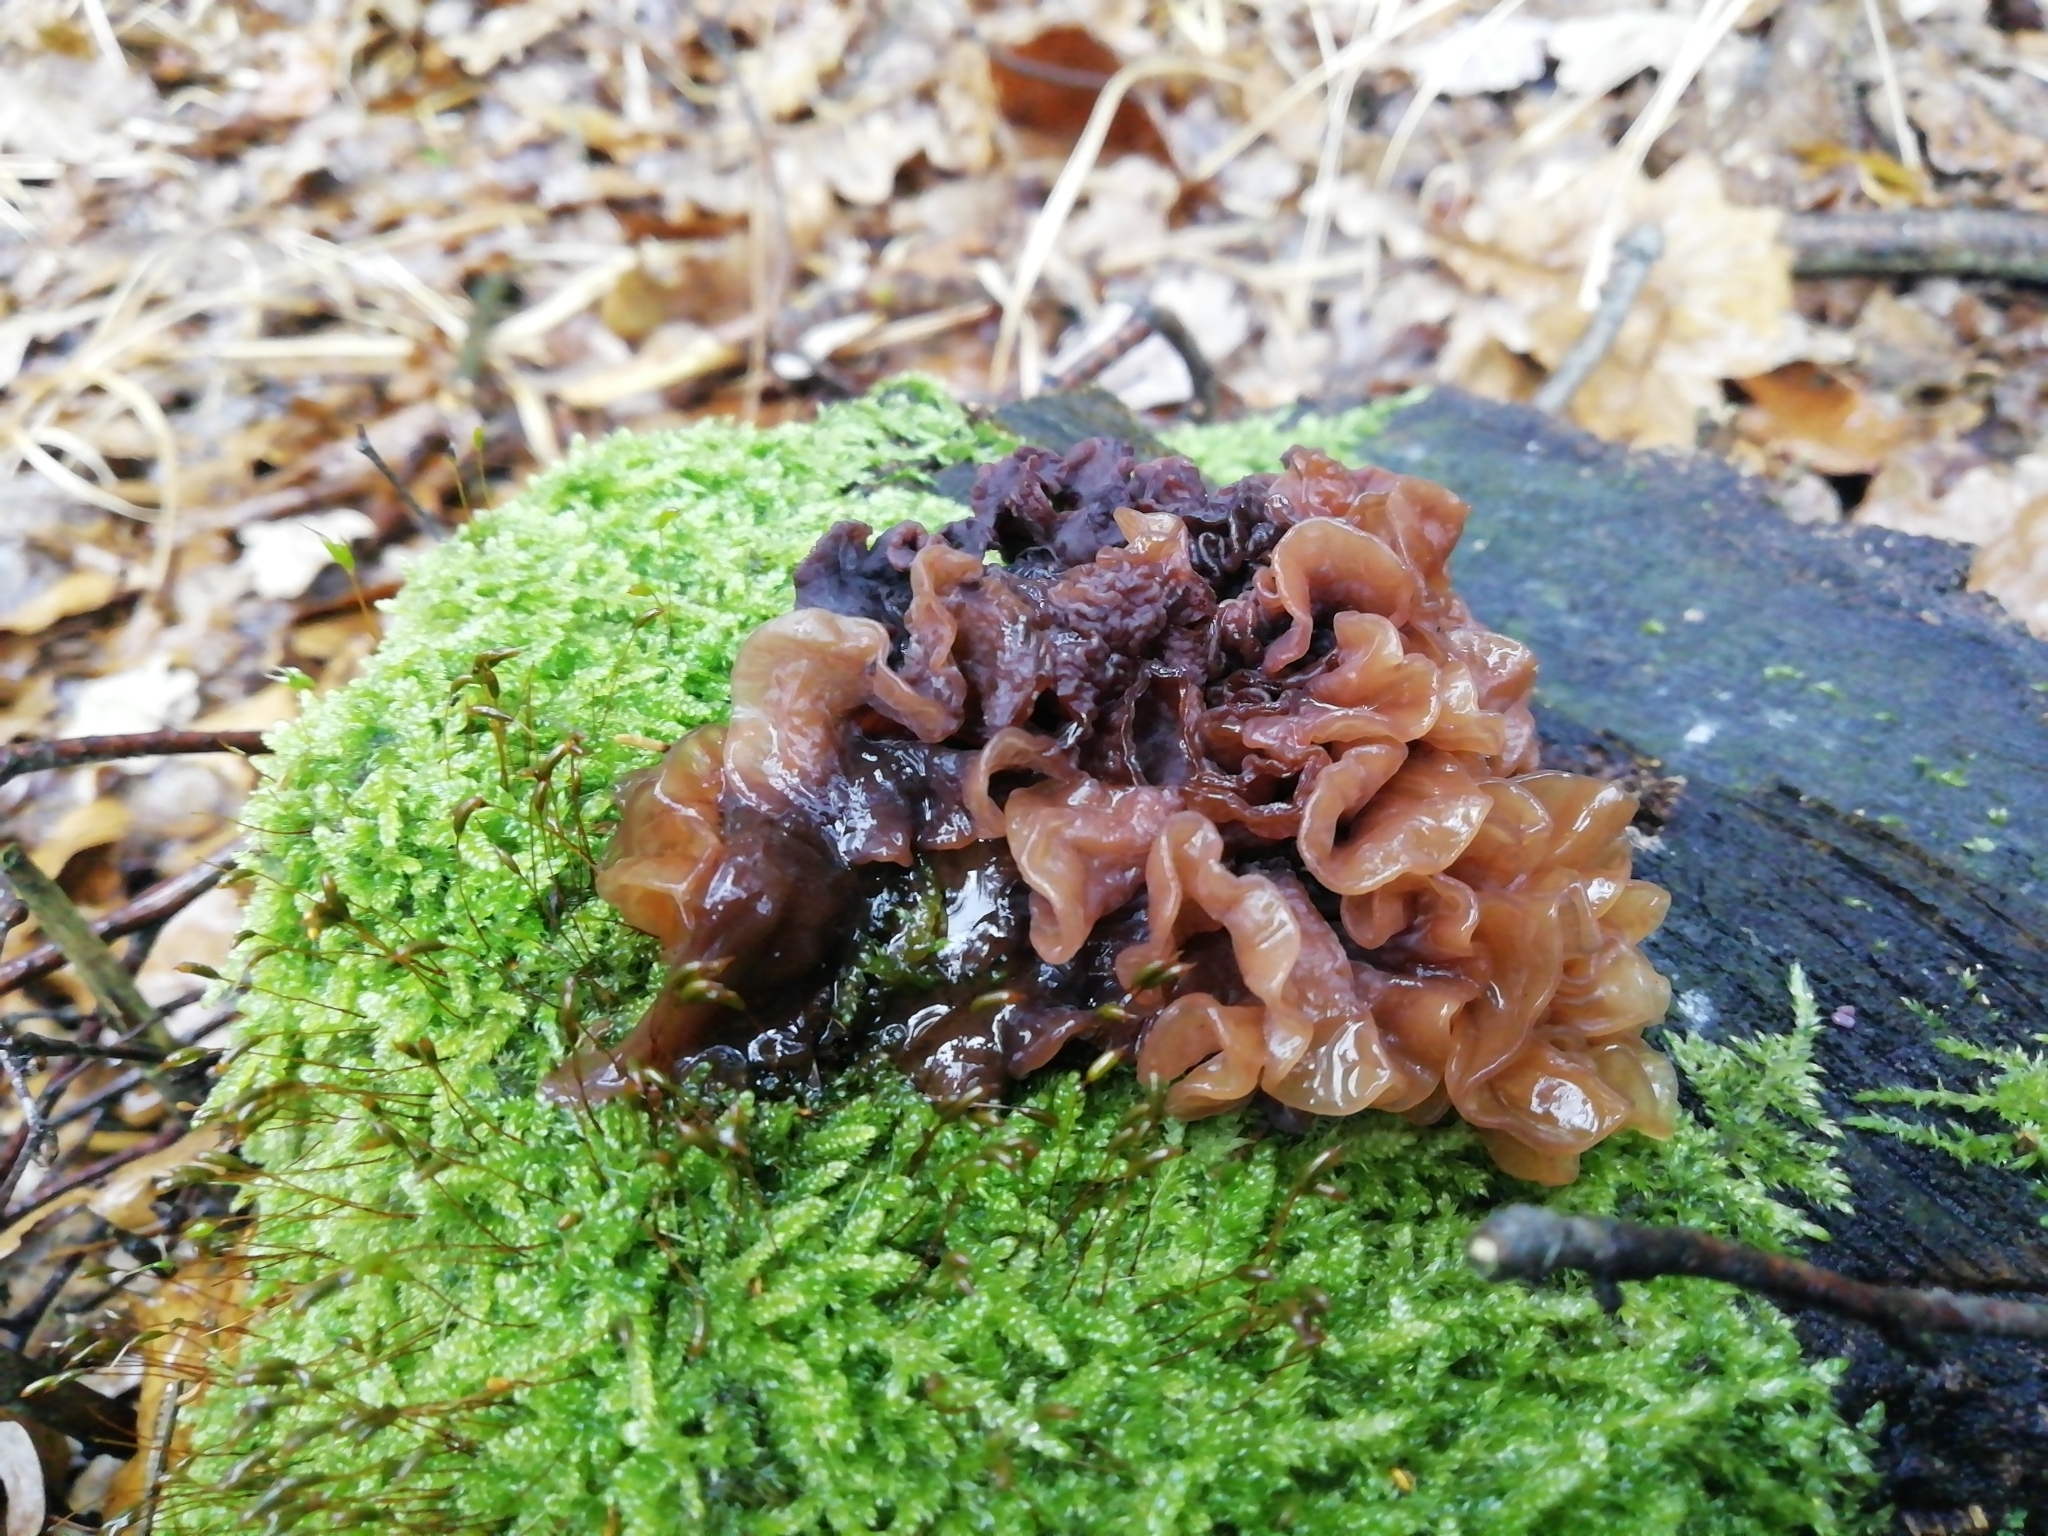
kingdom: Fungi
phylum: Basidiomycota
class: Tremellomycetes
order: Tremellales
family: Tremellaceae
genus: Phaeotremella
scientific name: Phaeotremella foliacea
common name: Leafy brain
